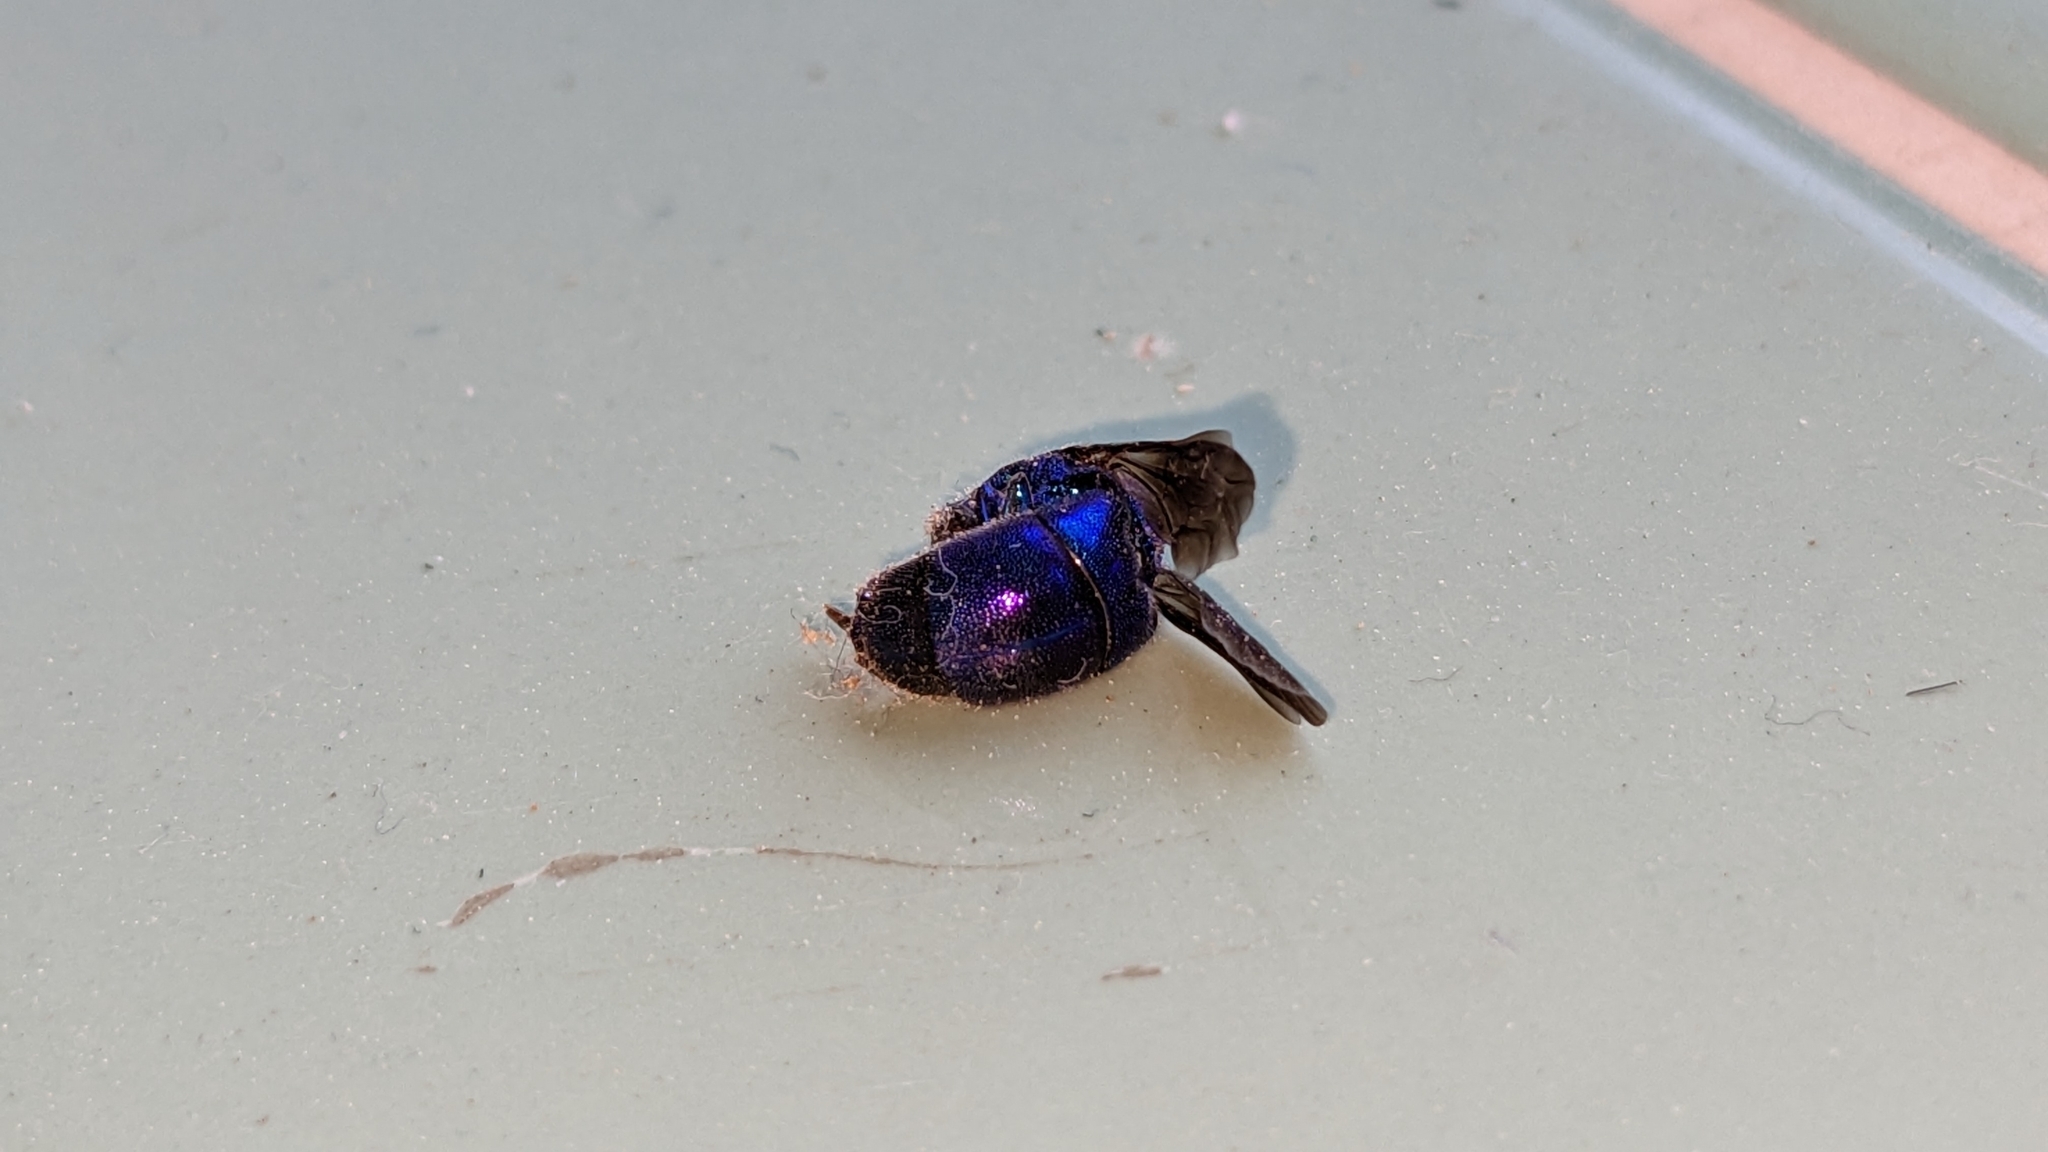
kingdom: Animalia
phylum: Arthropoda
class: Insecta
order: Hymenoptera
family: Chrysididae
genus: Chrysis
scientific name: Chrysis angolensis
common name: Cuckoo wasp
